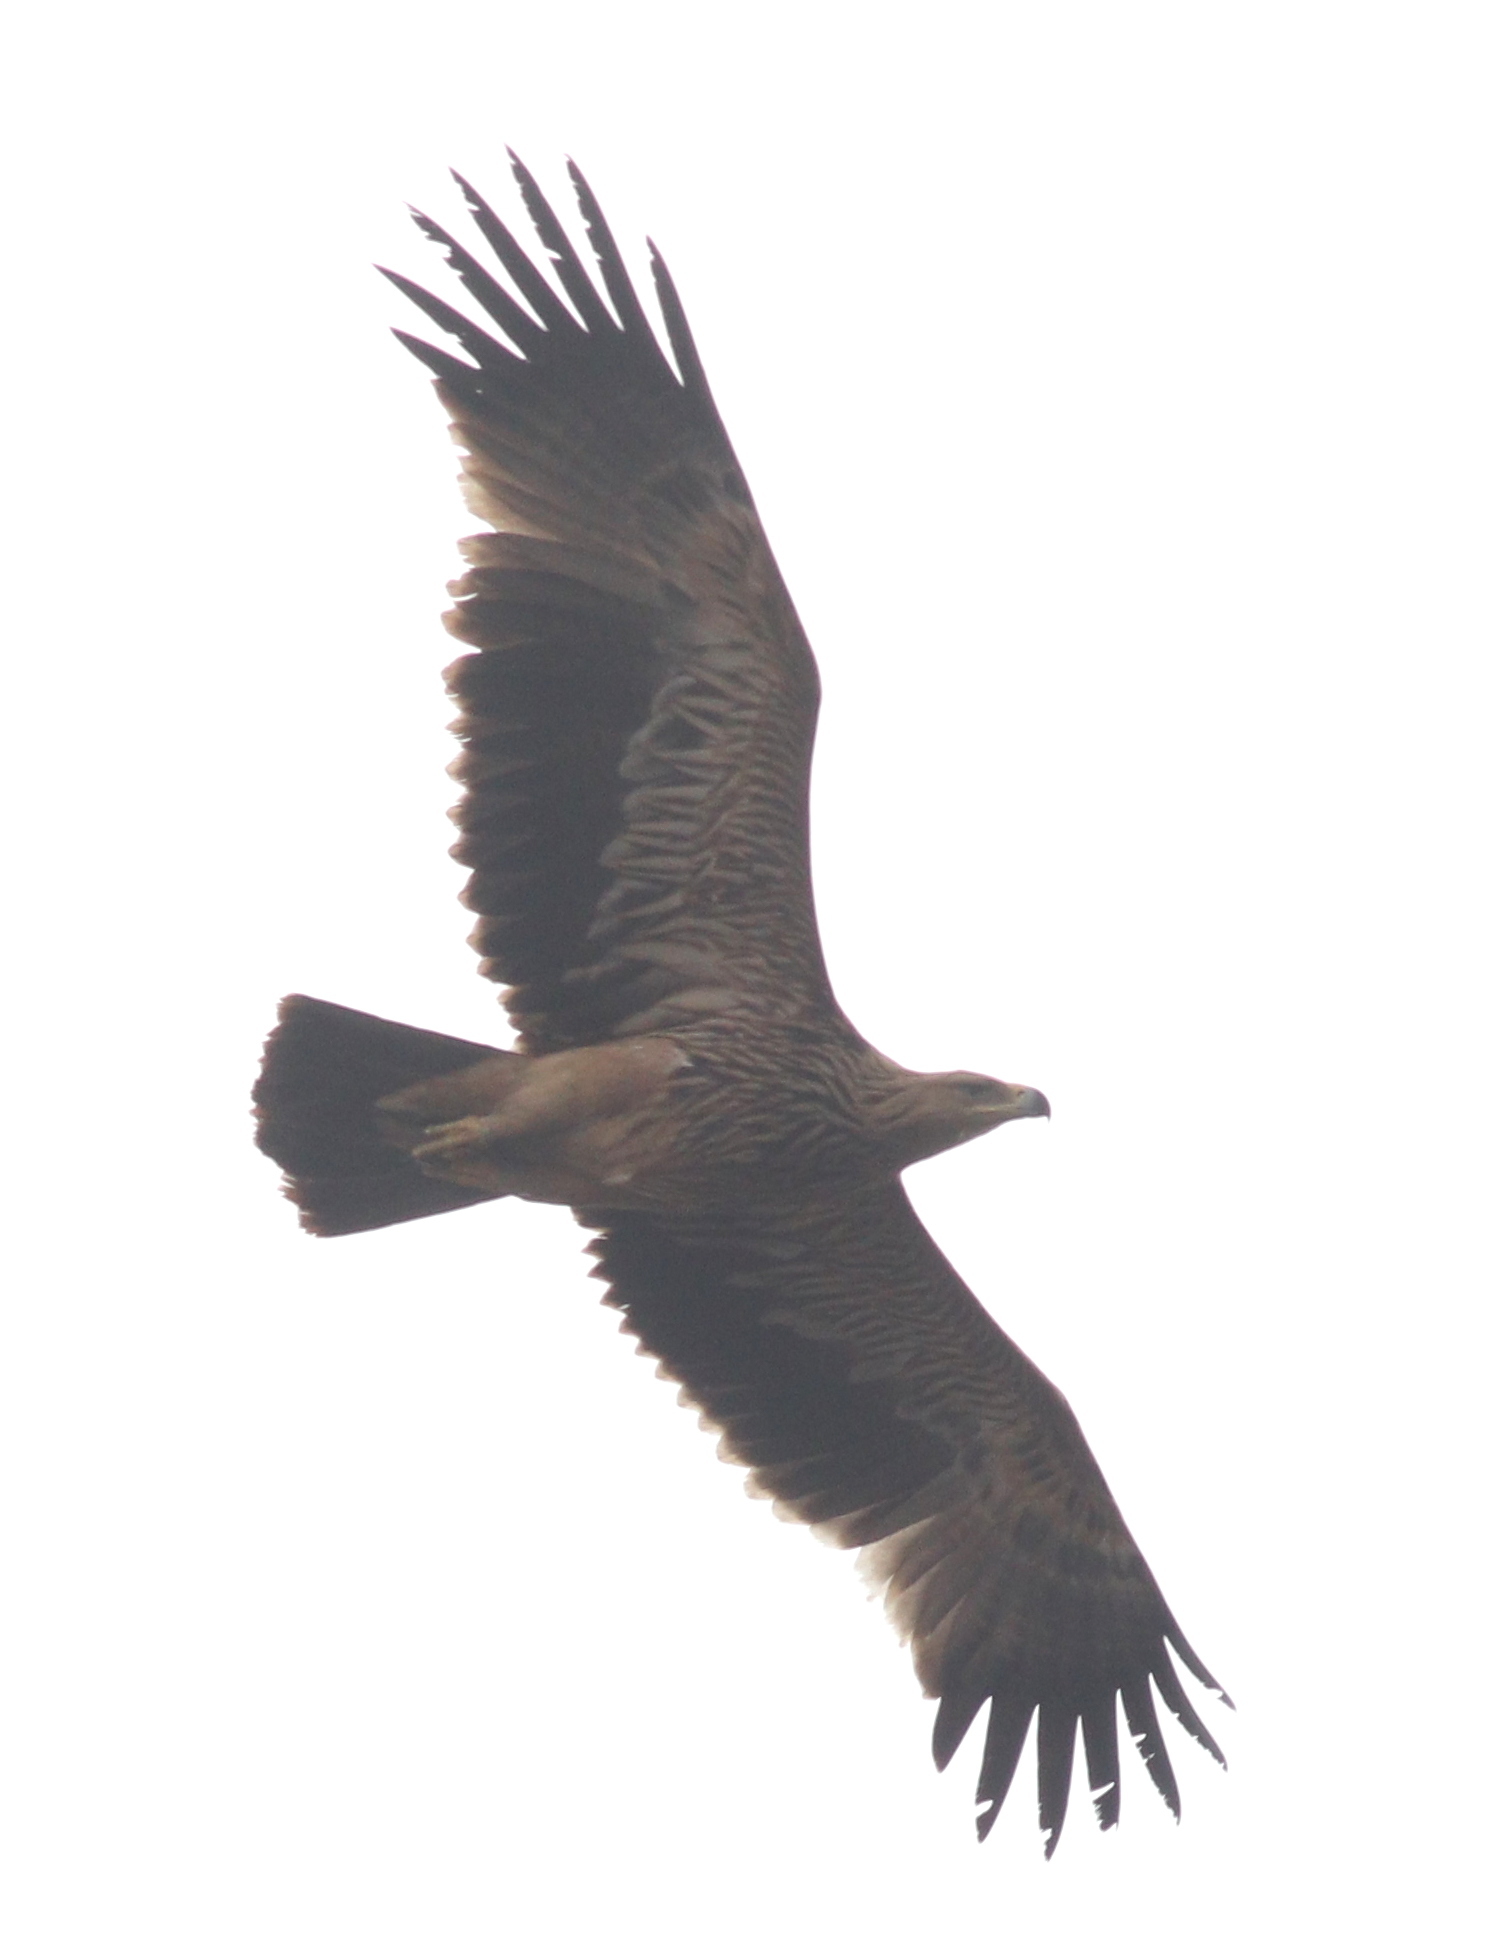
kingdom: Animalia
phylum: Chordata
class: Aves
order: Accipitriformes
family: Accipitridae
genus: Aquila
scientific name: Aquila heliaca
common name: Eastern imperial eagle
